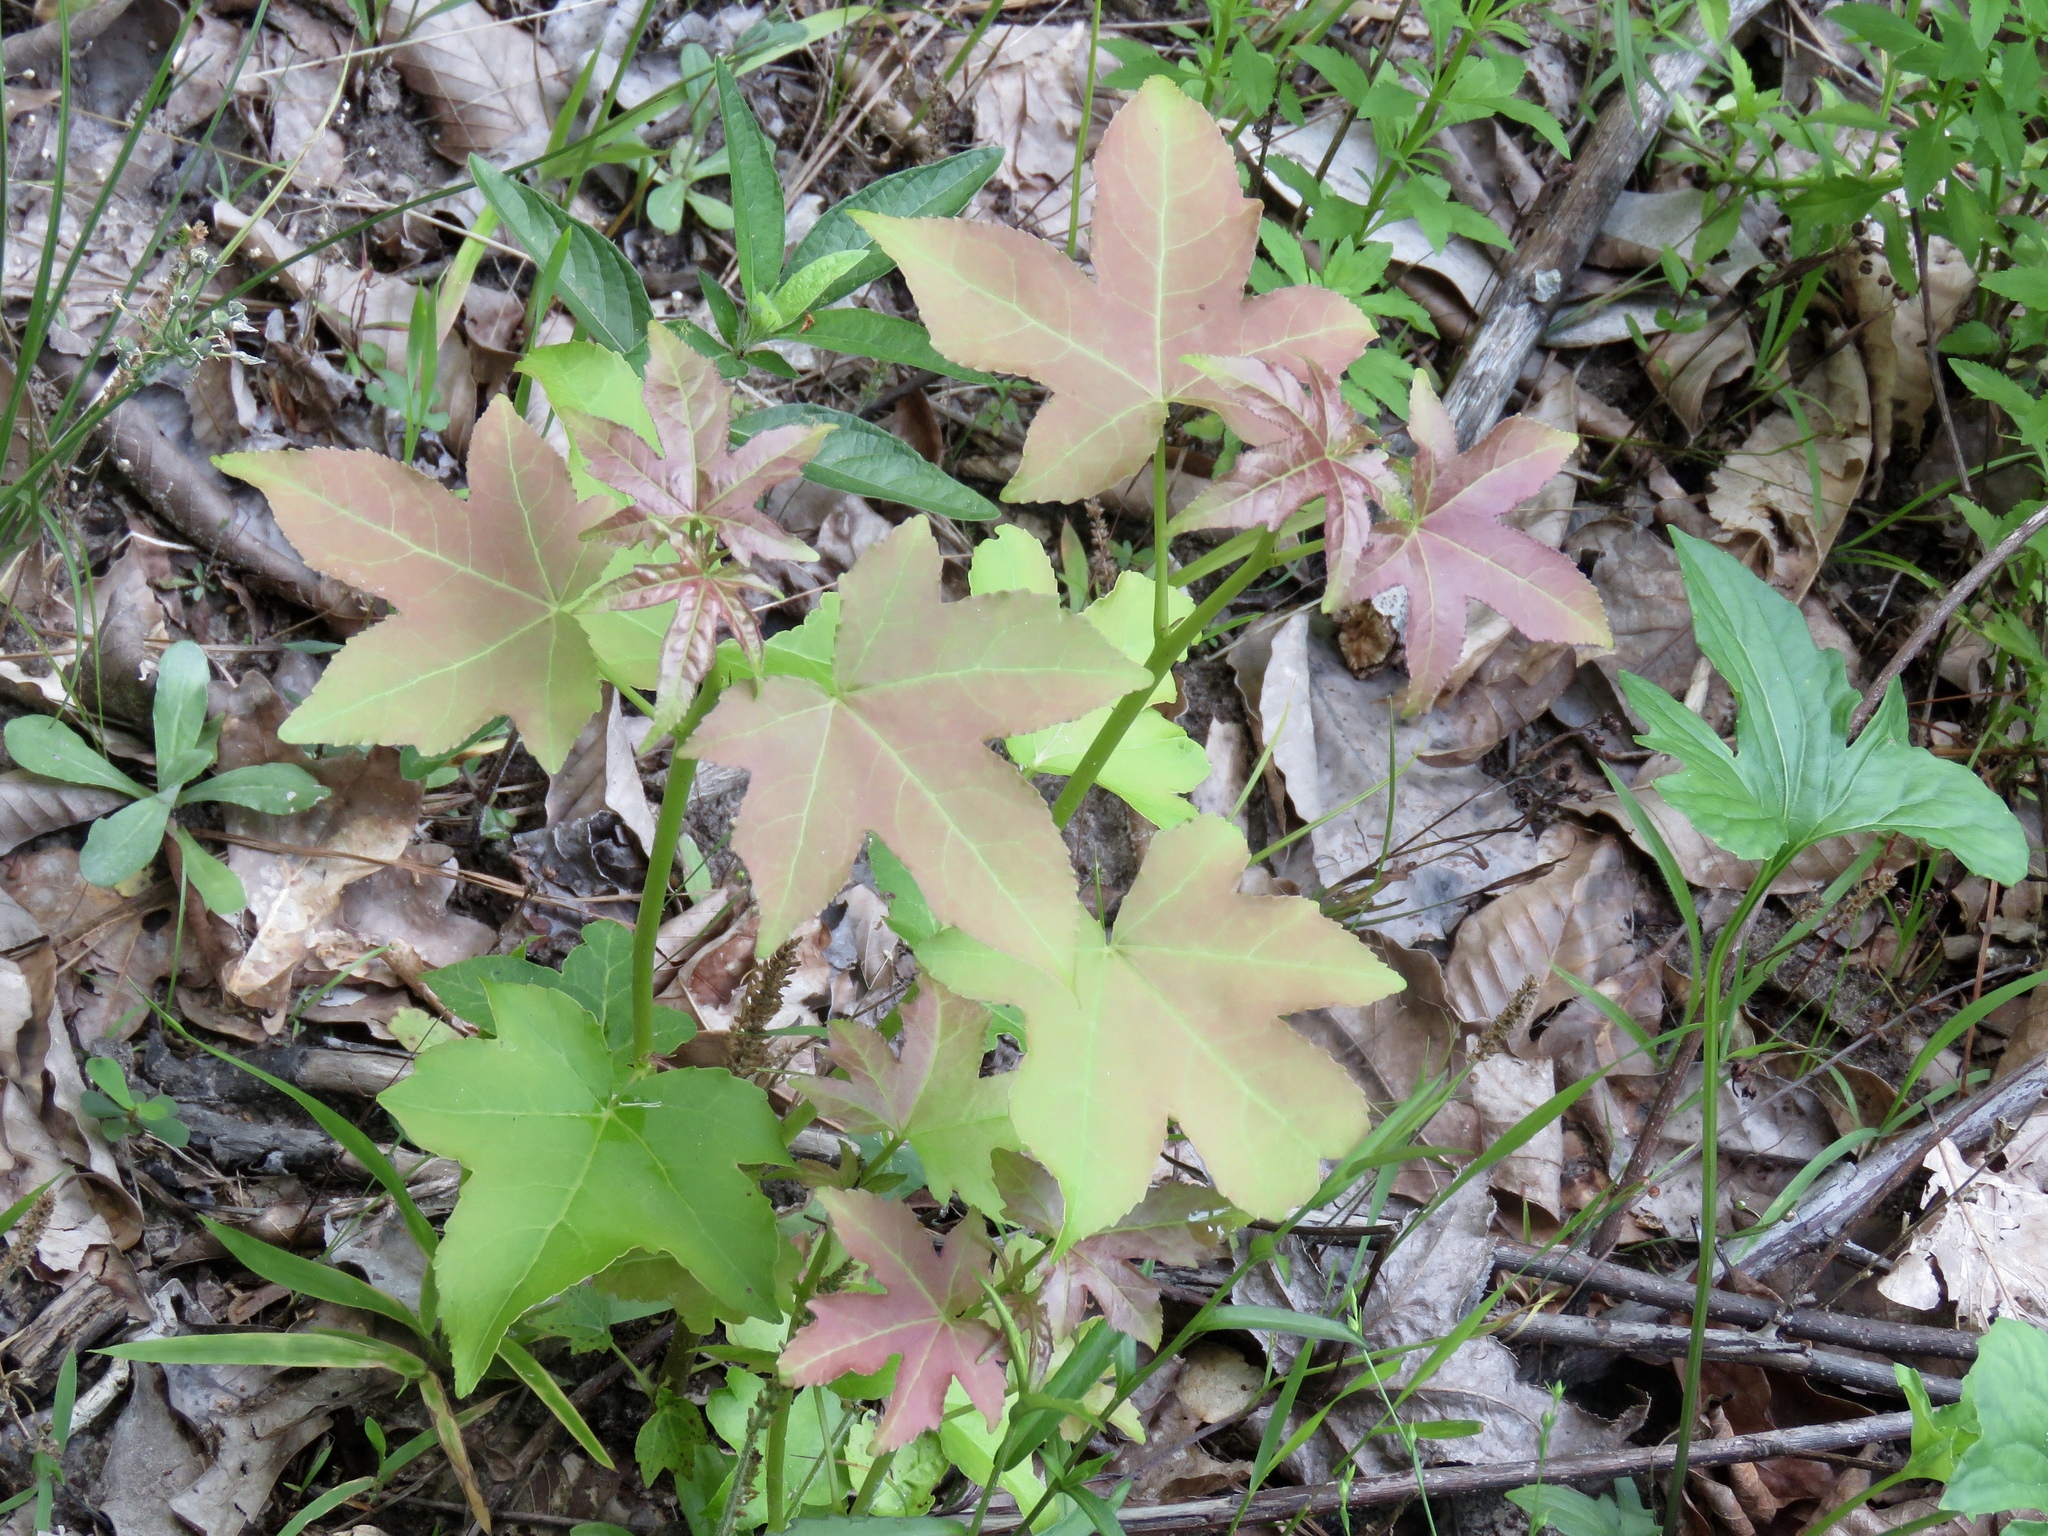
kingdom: Plantae
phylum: Tracheophyta
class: Magnoliopsida
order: Saxifragales
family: Altingiaceae
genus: Liquidambar
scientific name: Liquidambar styraciflua
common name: Sweet gum
